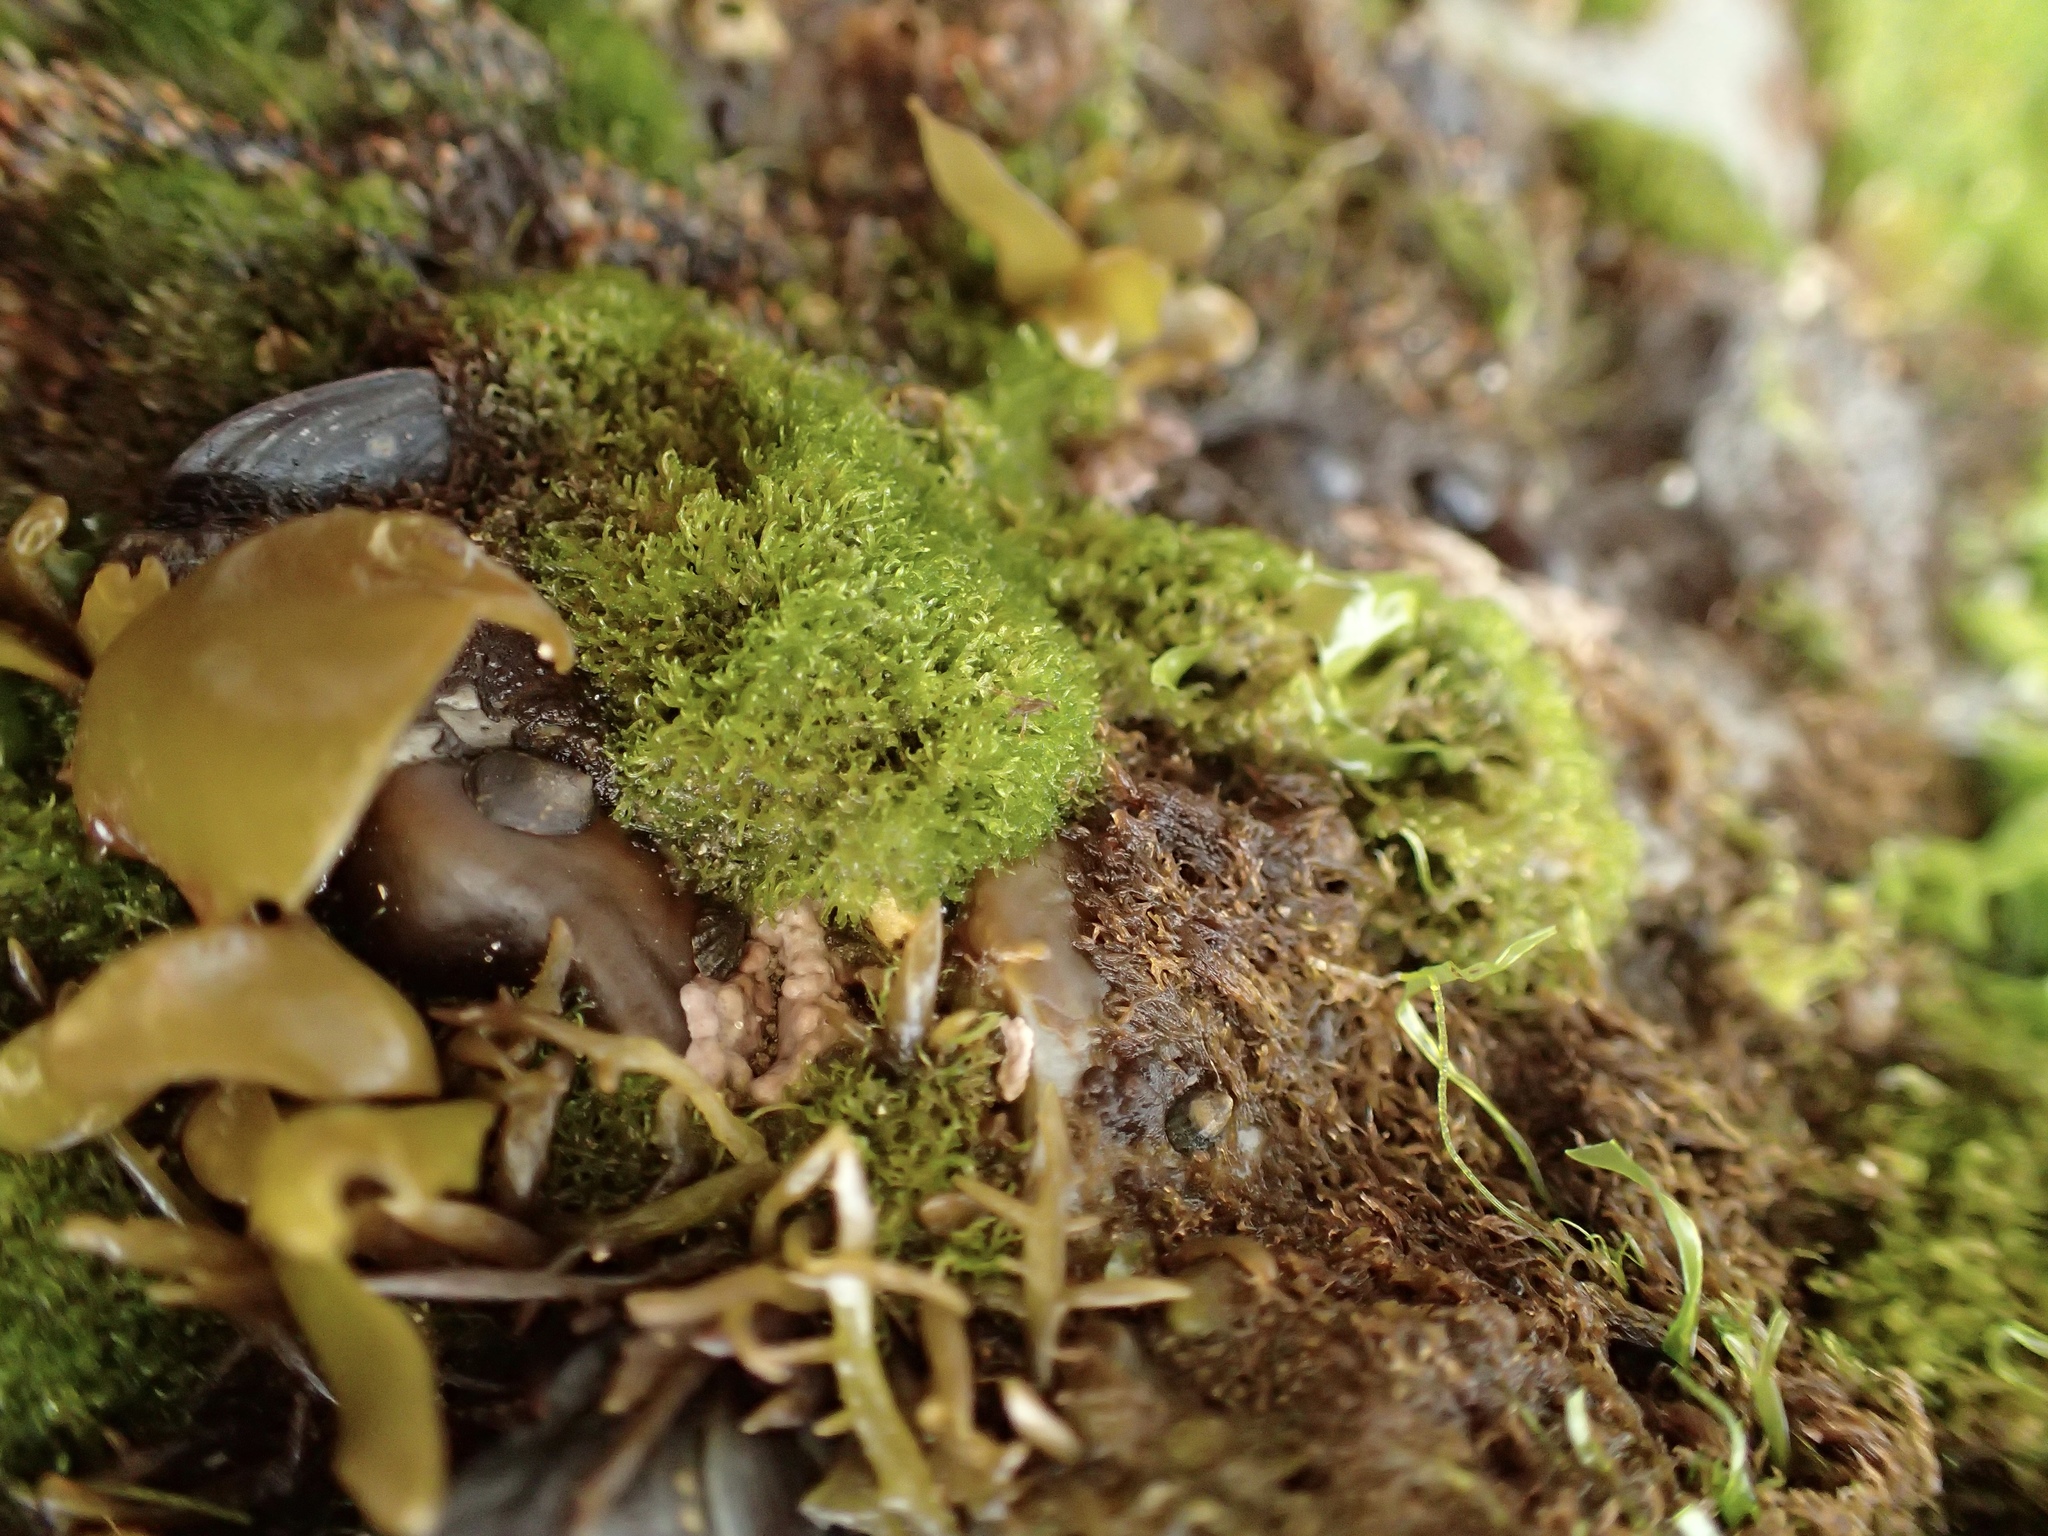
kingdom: Plantae
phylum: Chlorophyta
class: Ulvophyceae
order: Cladophorales
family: Cladophoraceae
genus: Cladophora
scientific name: Cladophora columbiana
